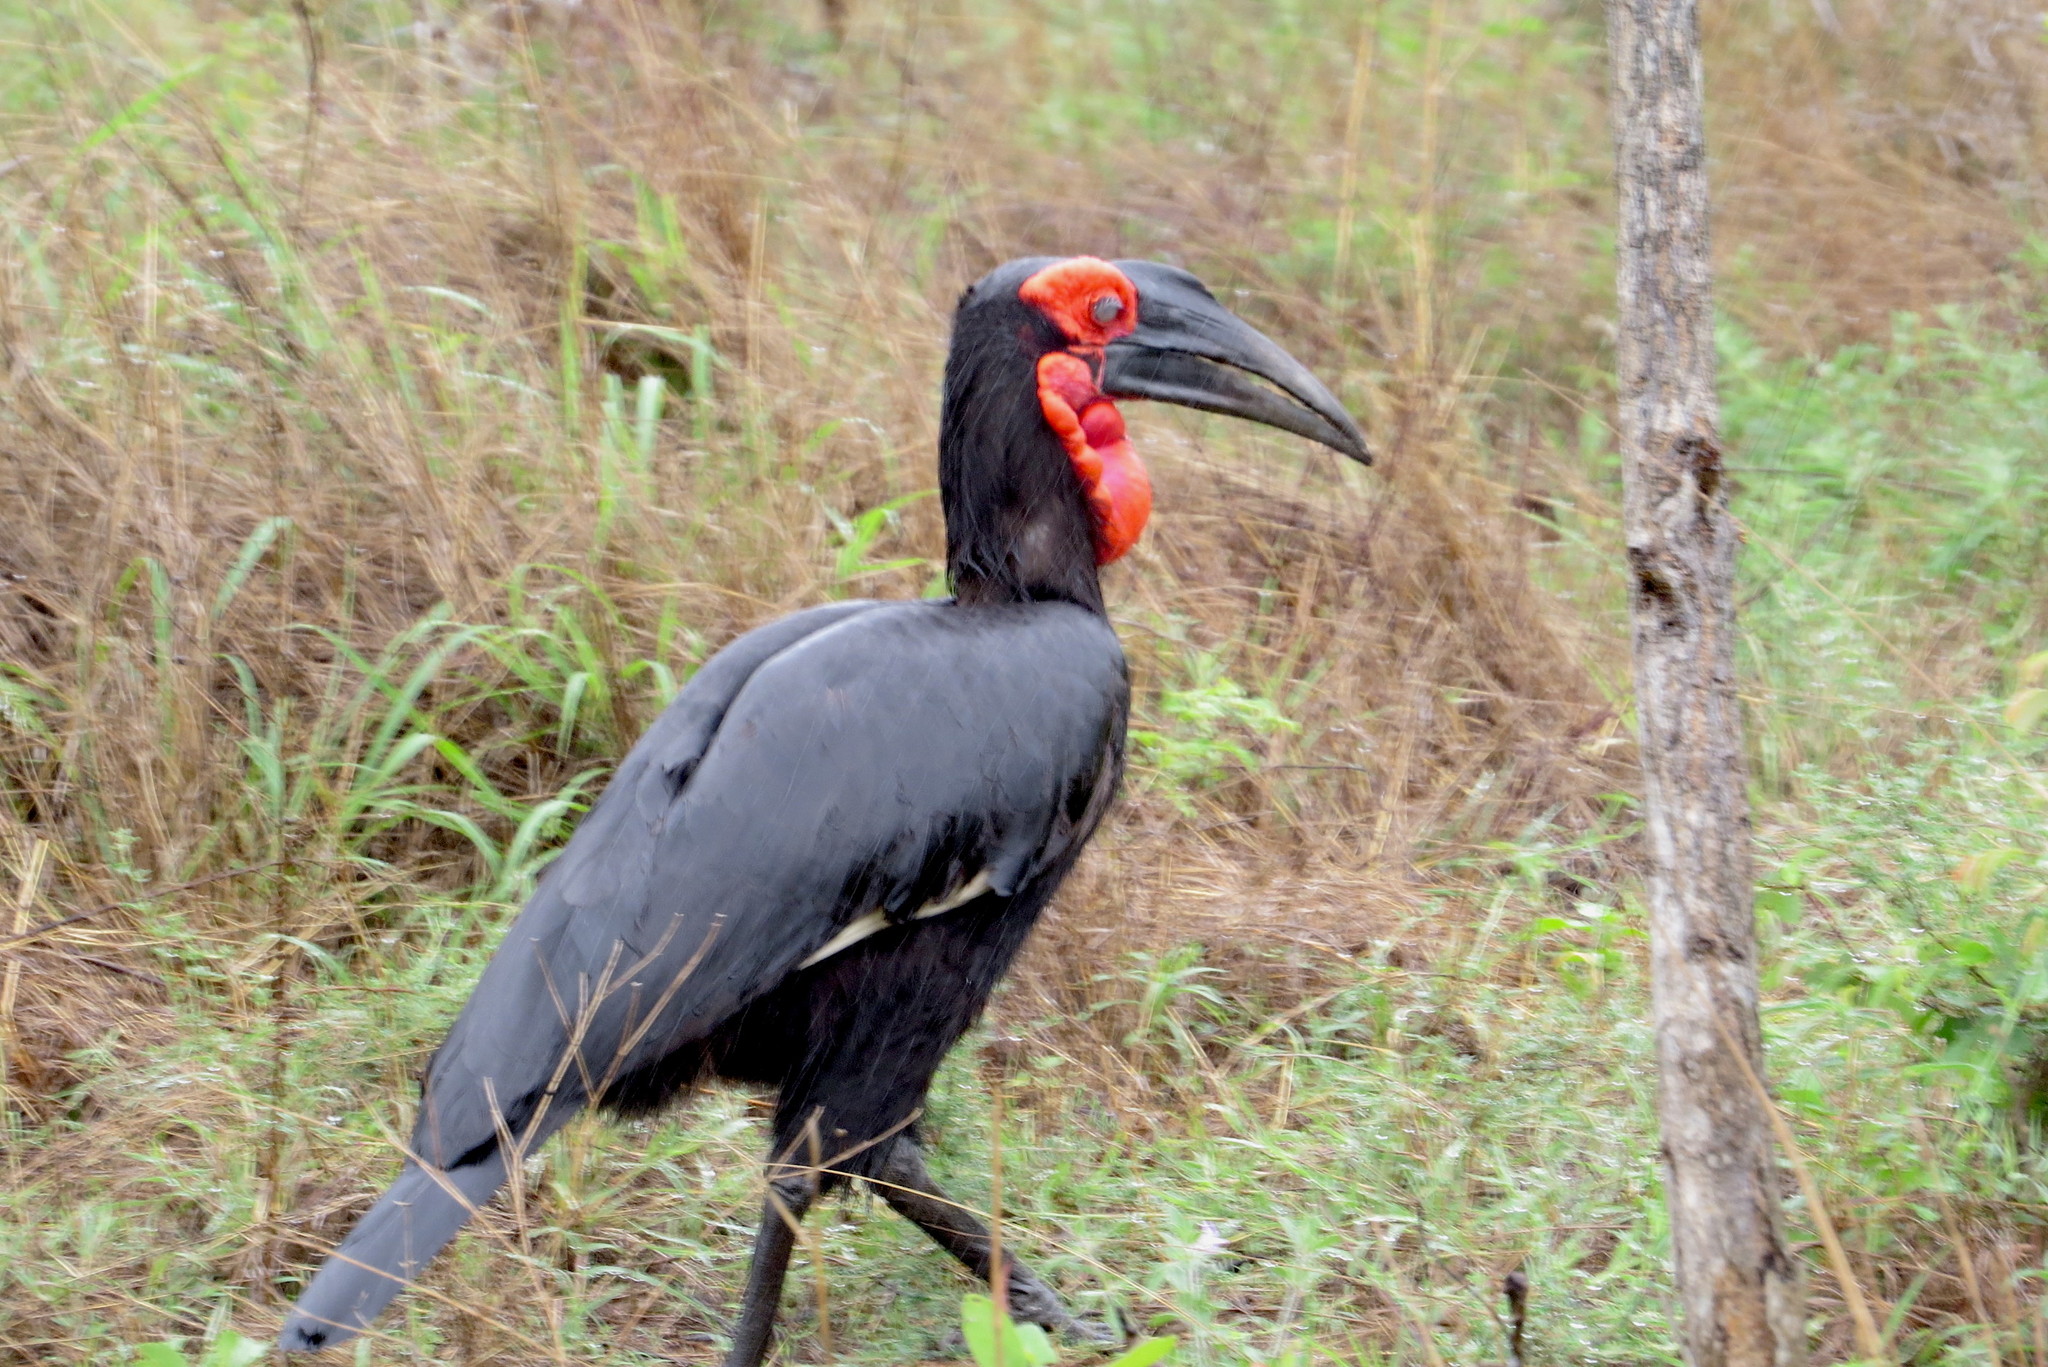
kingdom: Animalia
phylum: Chordata
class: Aves
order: Bucerotiformes
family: Bucorvidae
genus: Bucorvus
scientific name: Bucorvus leadbeateri
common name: Southern ground-hornbill
